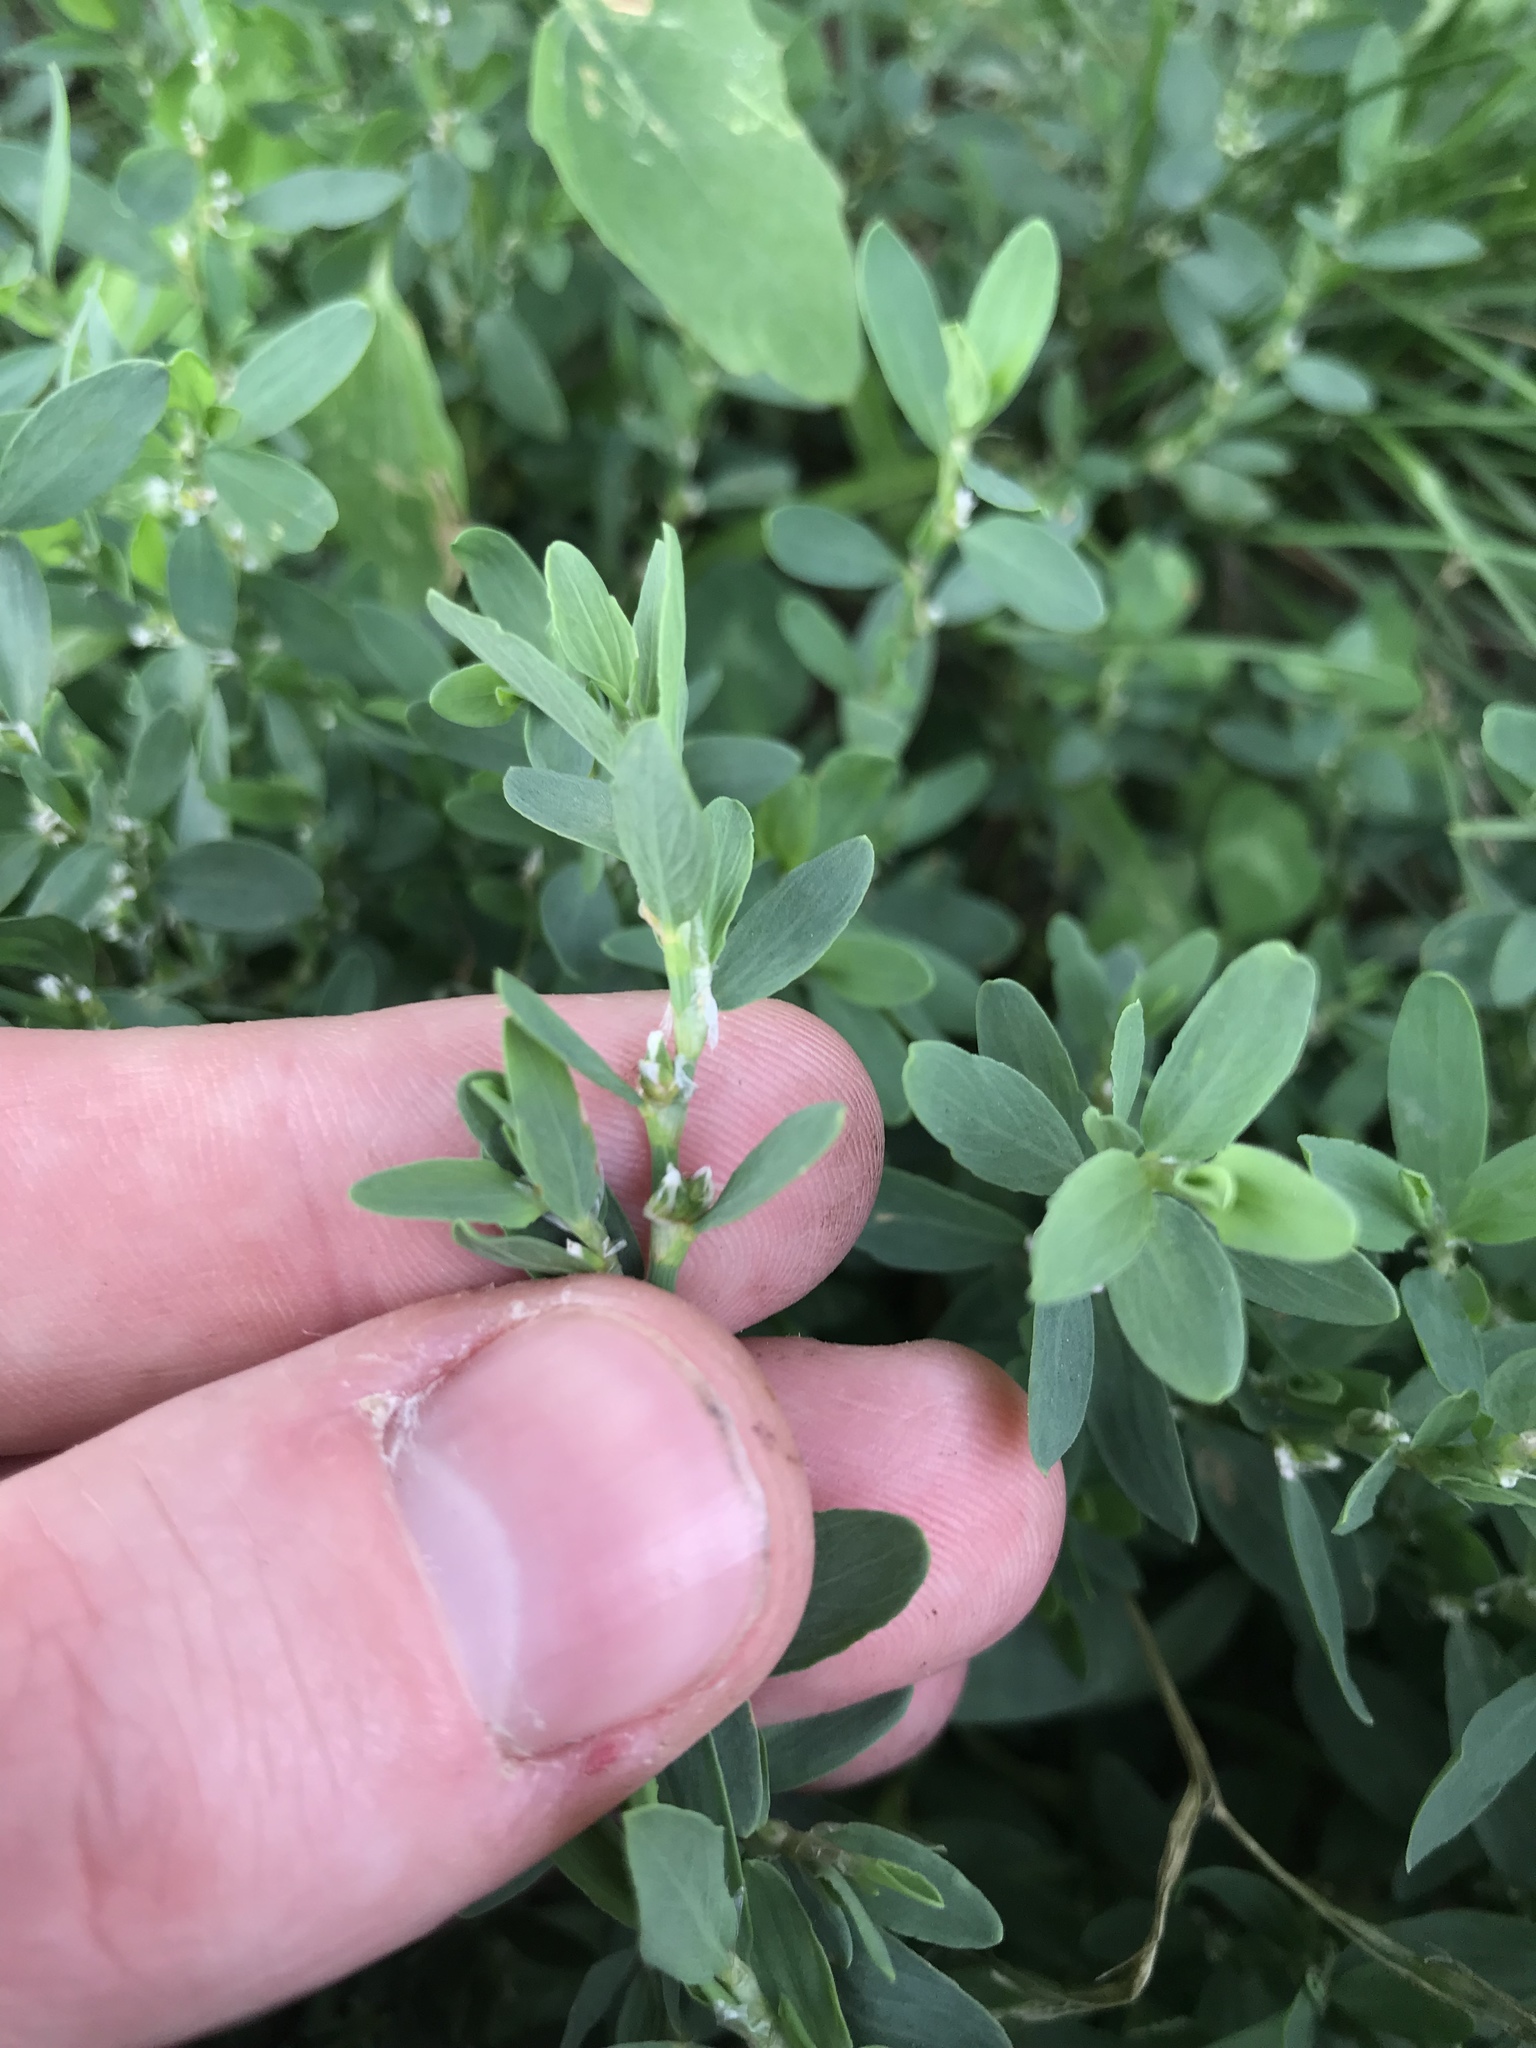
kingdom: Plantae
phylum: Tracheophyta
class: Magnoliopsida
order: Caryophyllales
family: Polygonaceae
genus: Polygonum
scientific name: Polygonum aviculare
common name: Prostrate knotweed
